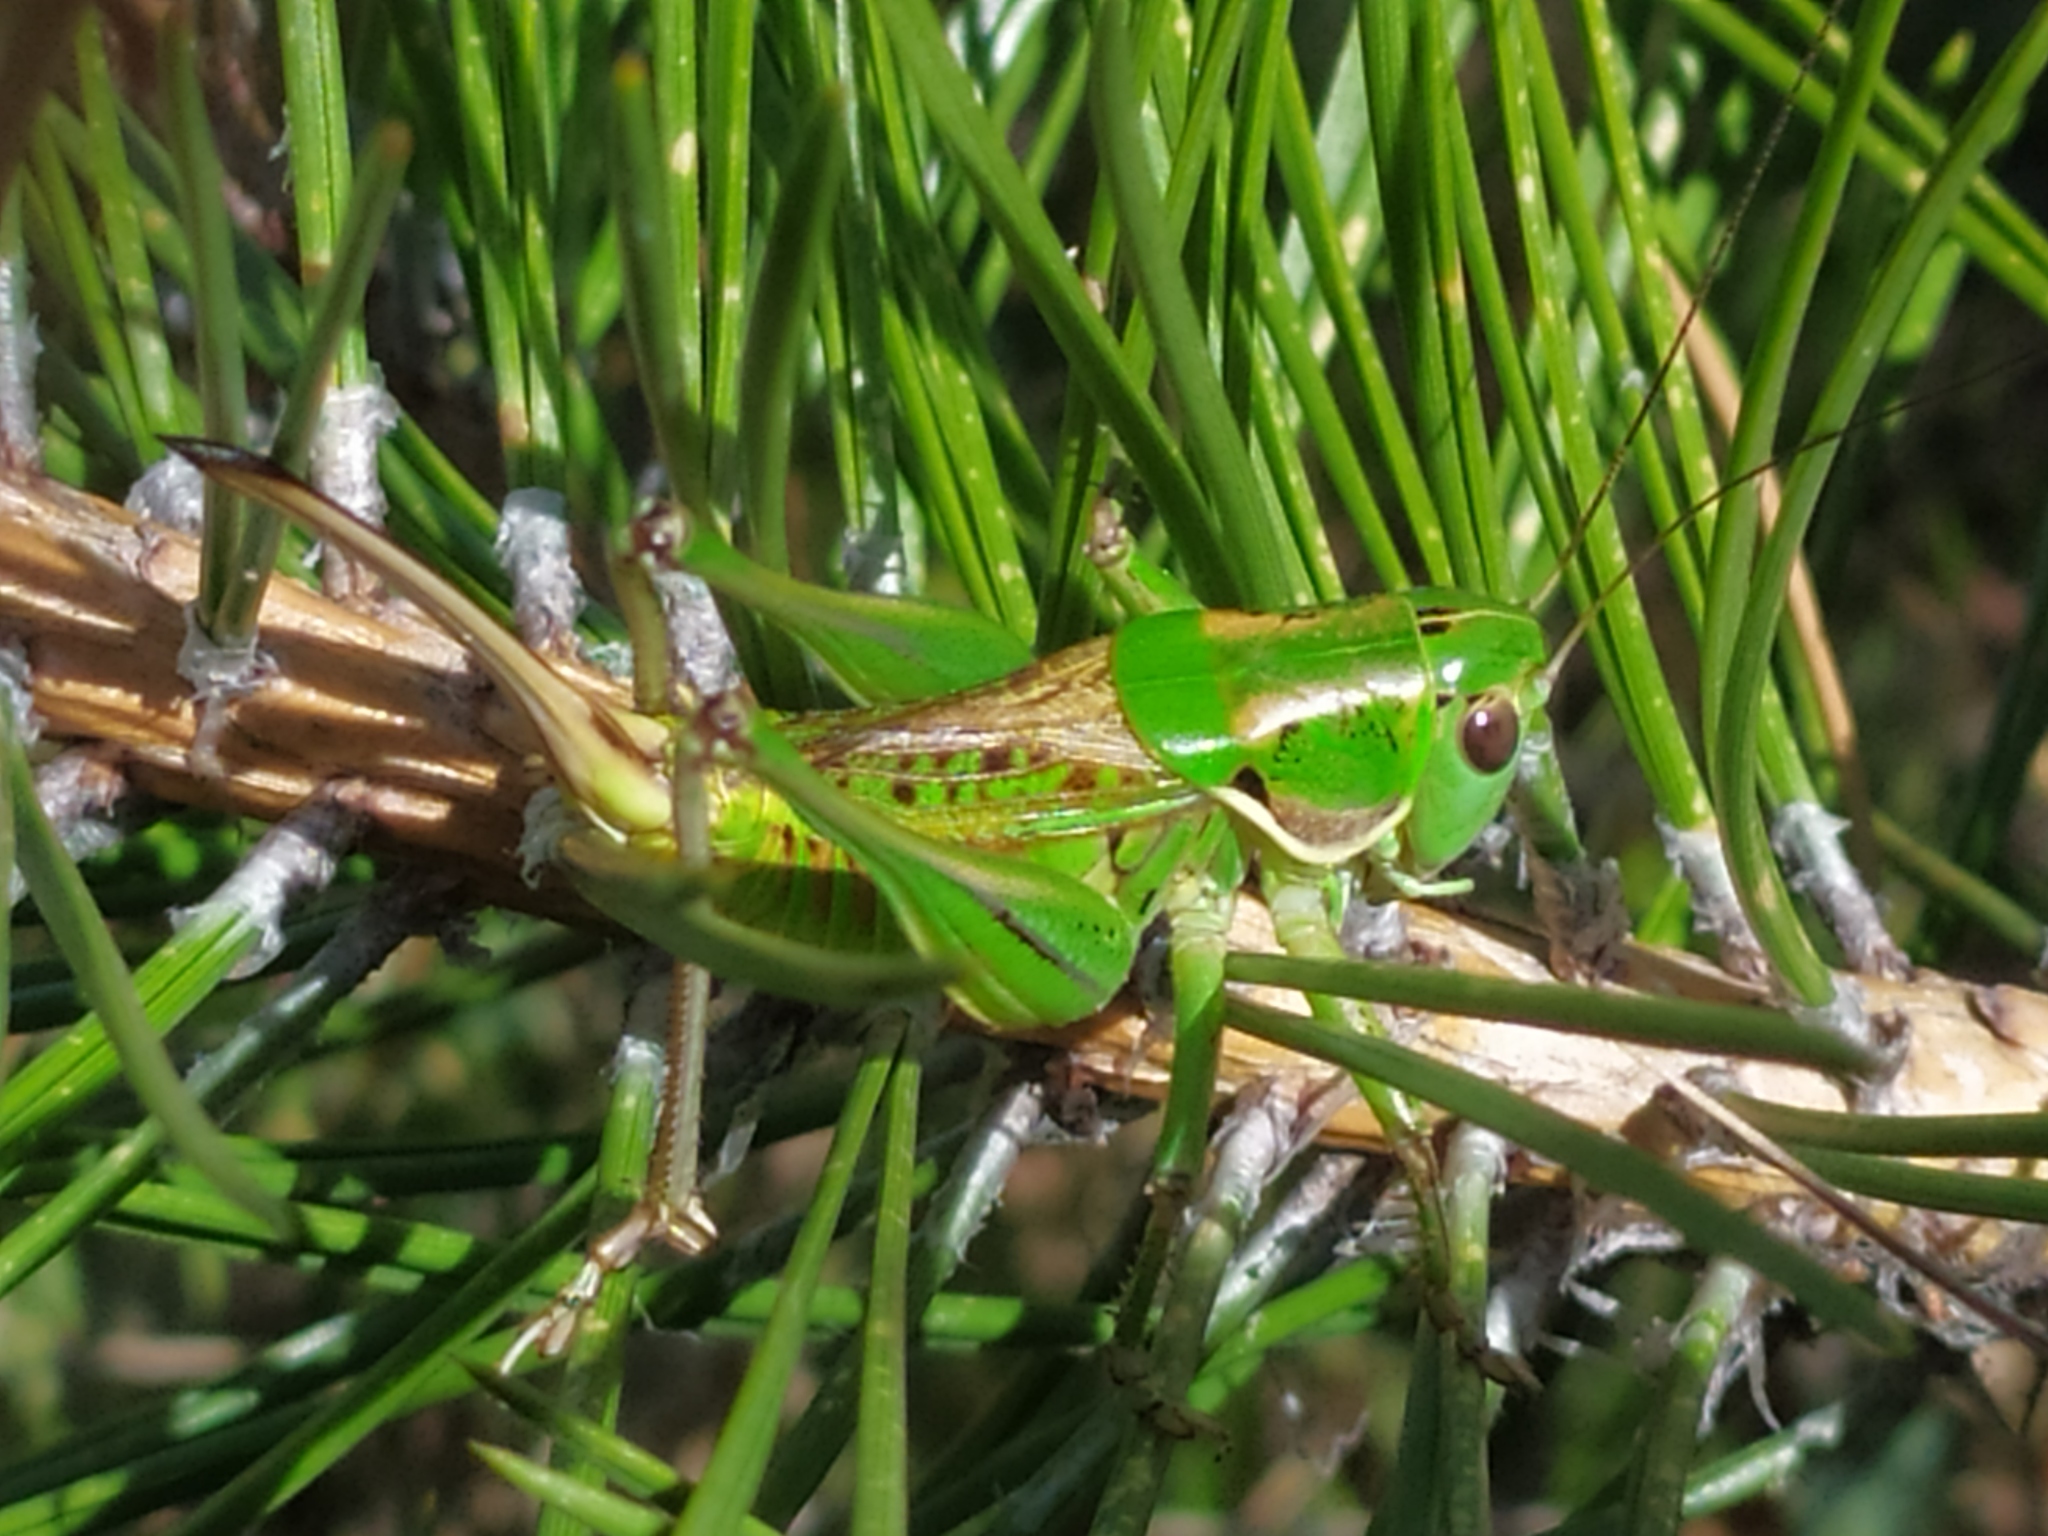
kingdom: Animalia
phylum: Arthropoda
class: Insecta
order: Orthoptera
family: Tettigoniidae
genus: Gampsocleis
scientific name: Gampsocleis abbreviata
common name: Short-winged spiny bush-cricket
